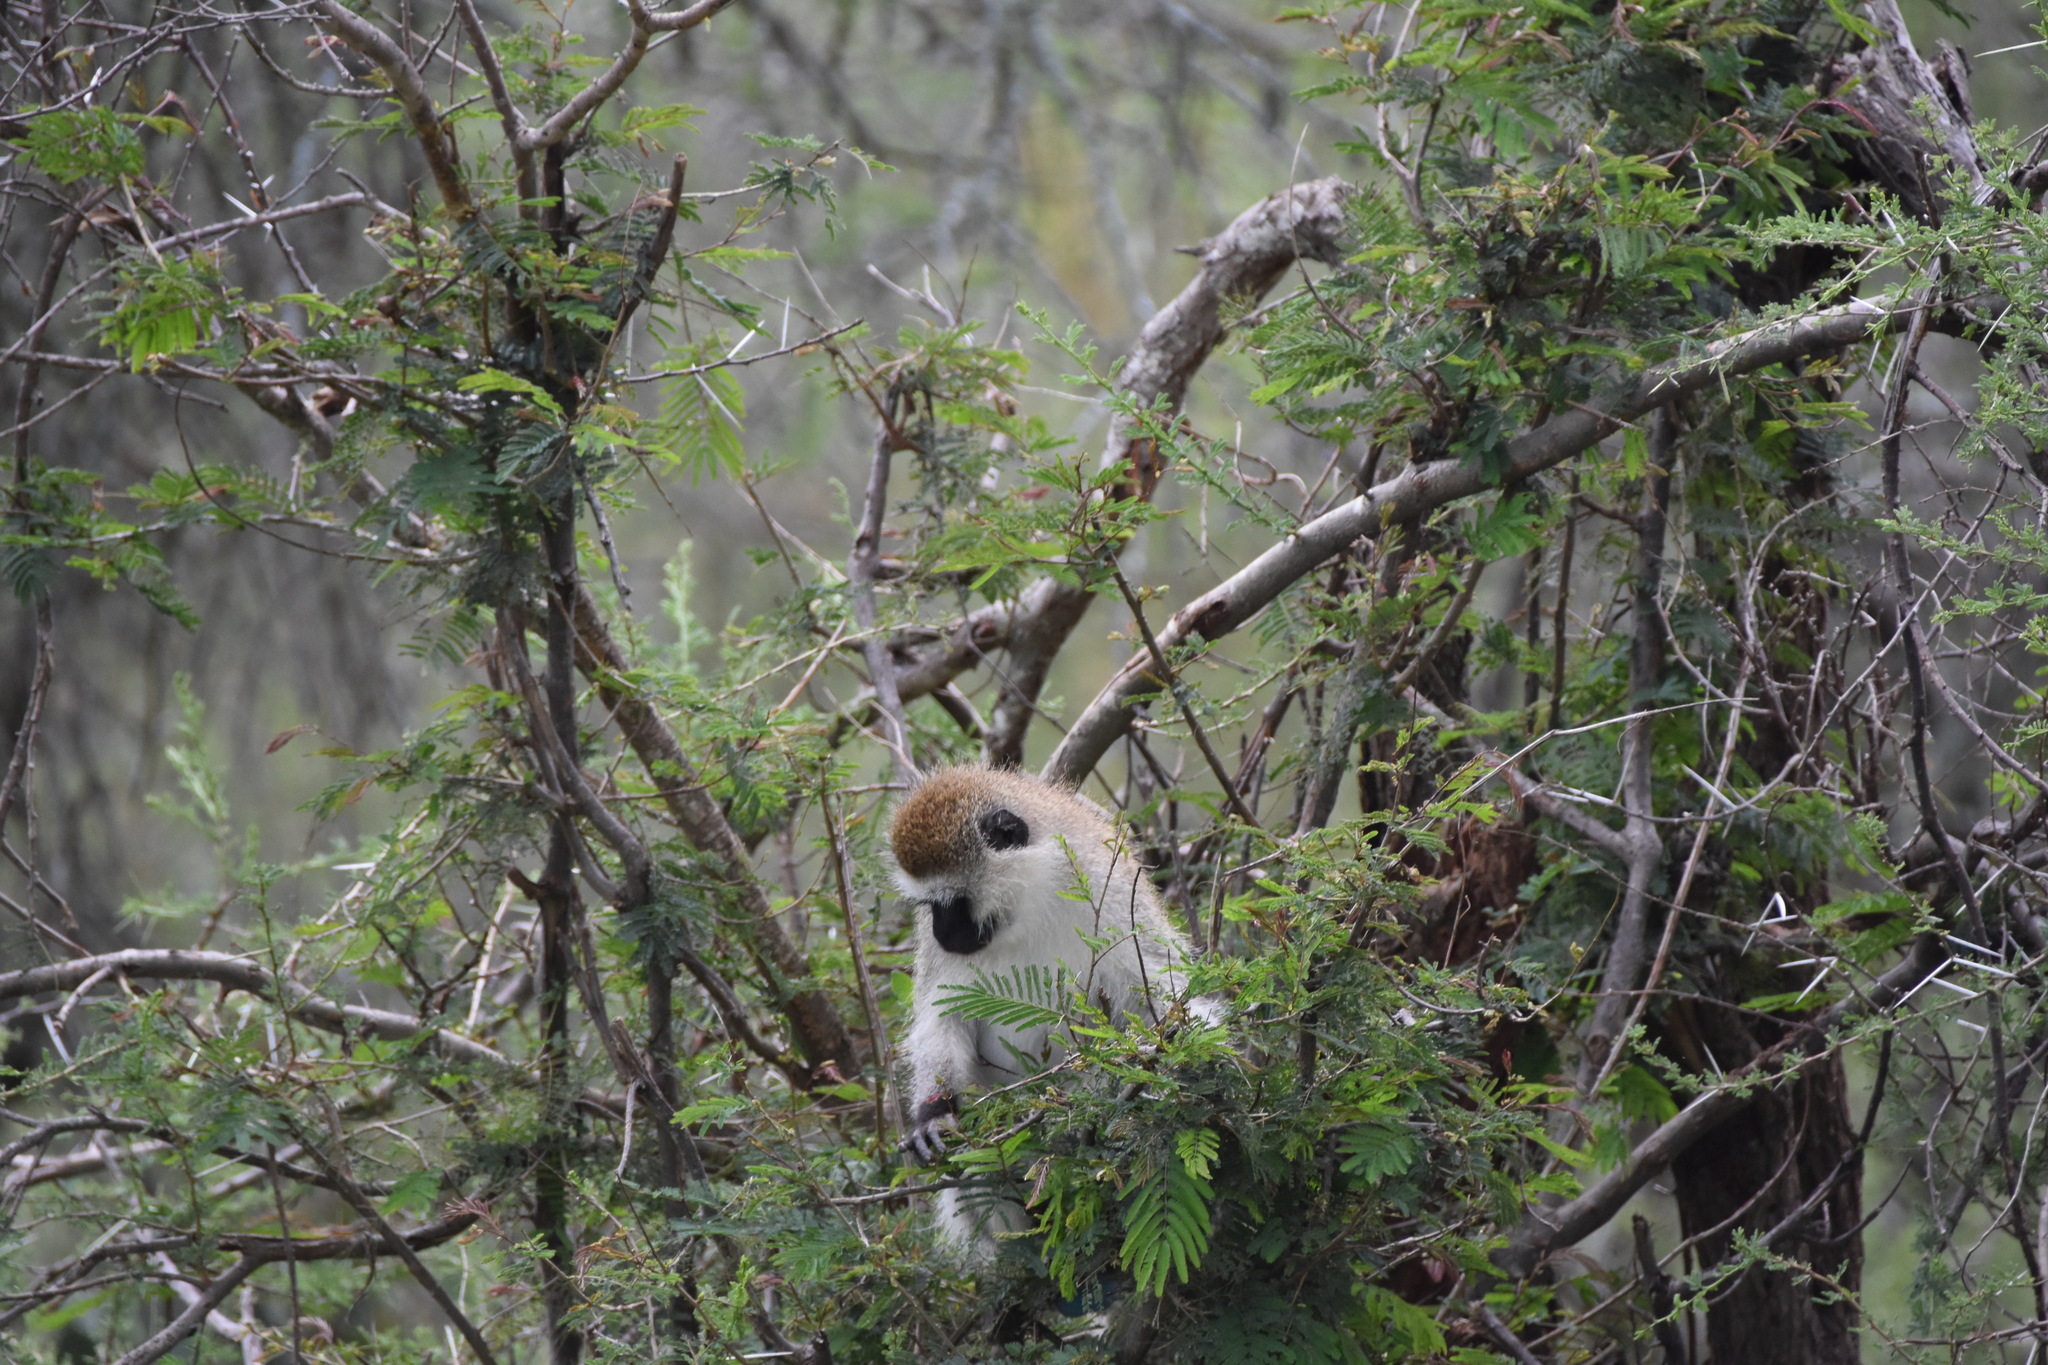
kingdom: Animalia
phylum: Chordata
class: Mammalia
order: Primates
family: Cercopithecidae
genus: Chlorocebus
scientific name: Chlorocebus pygerythrus
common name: Vervet monkey
